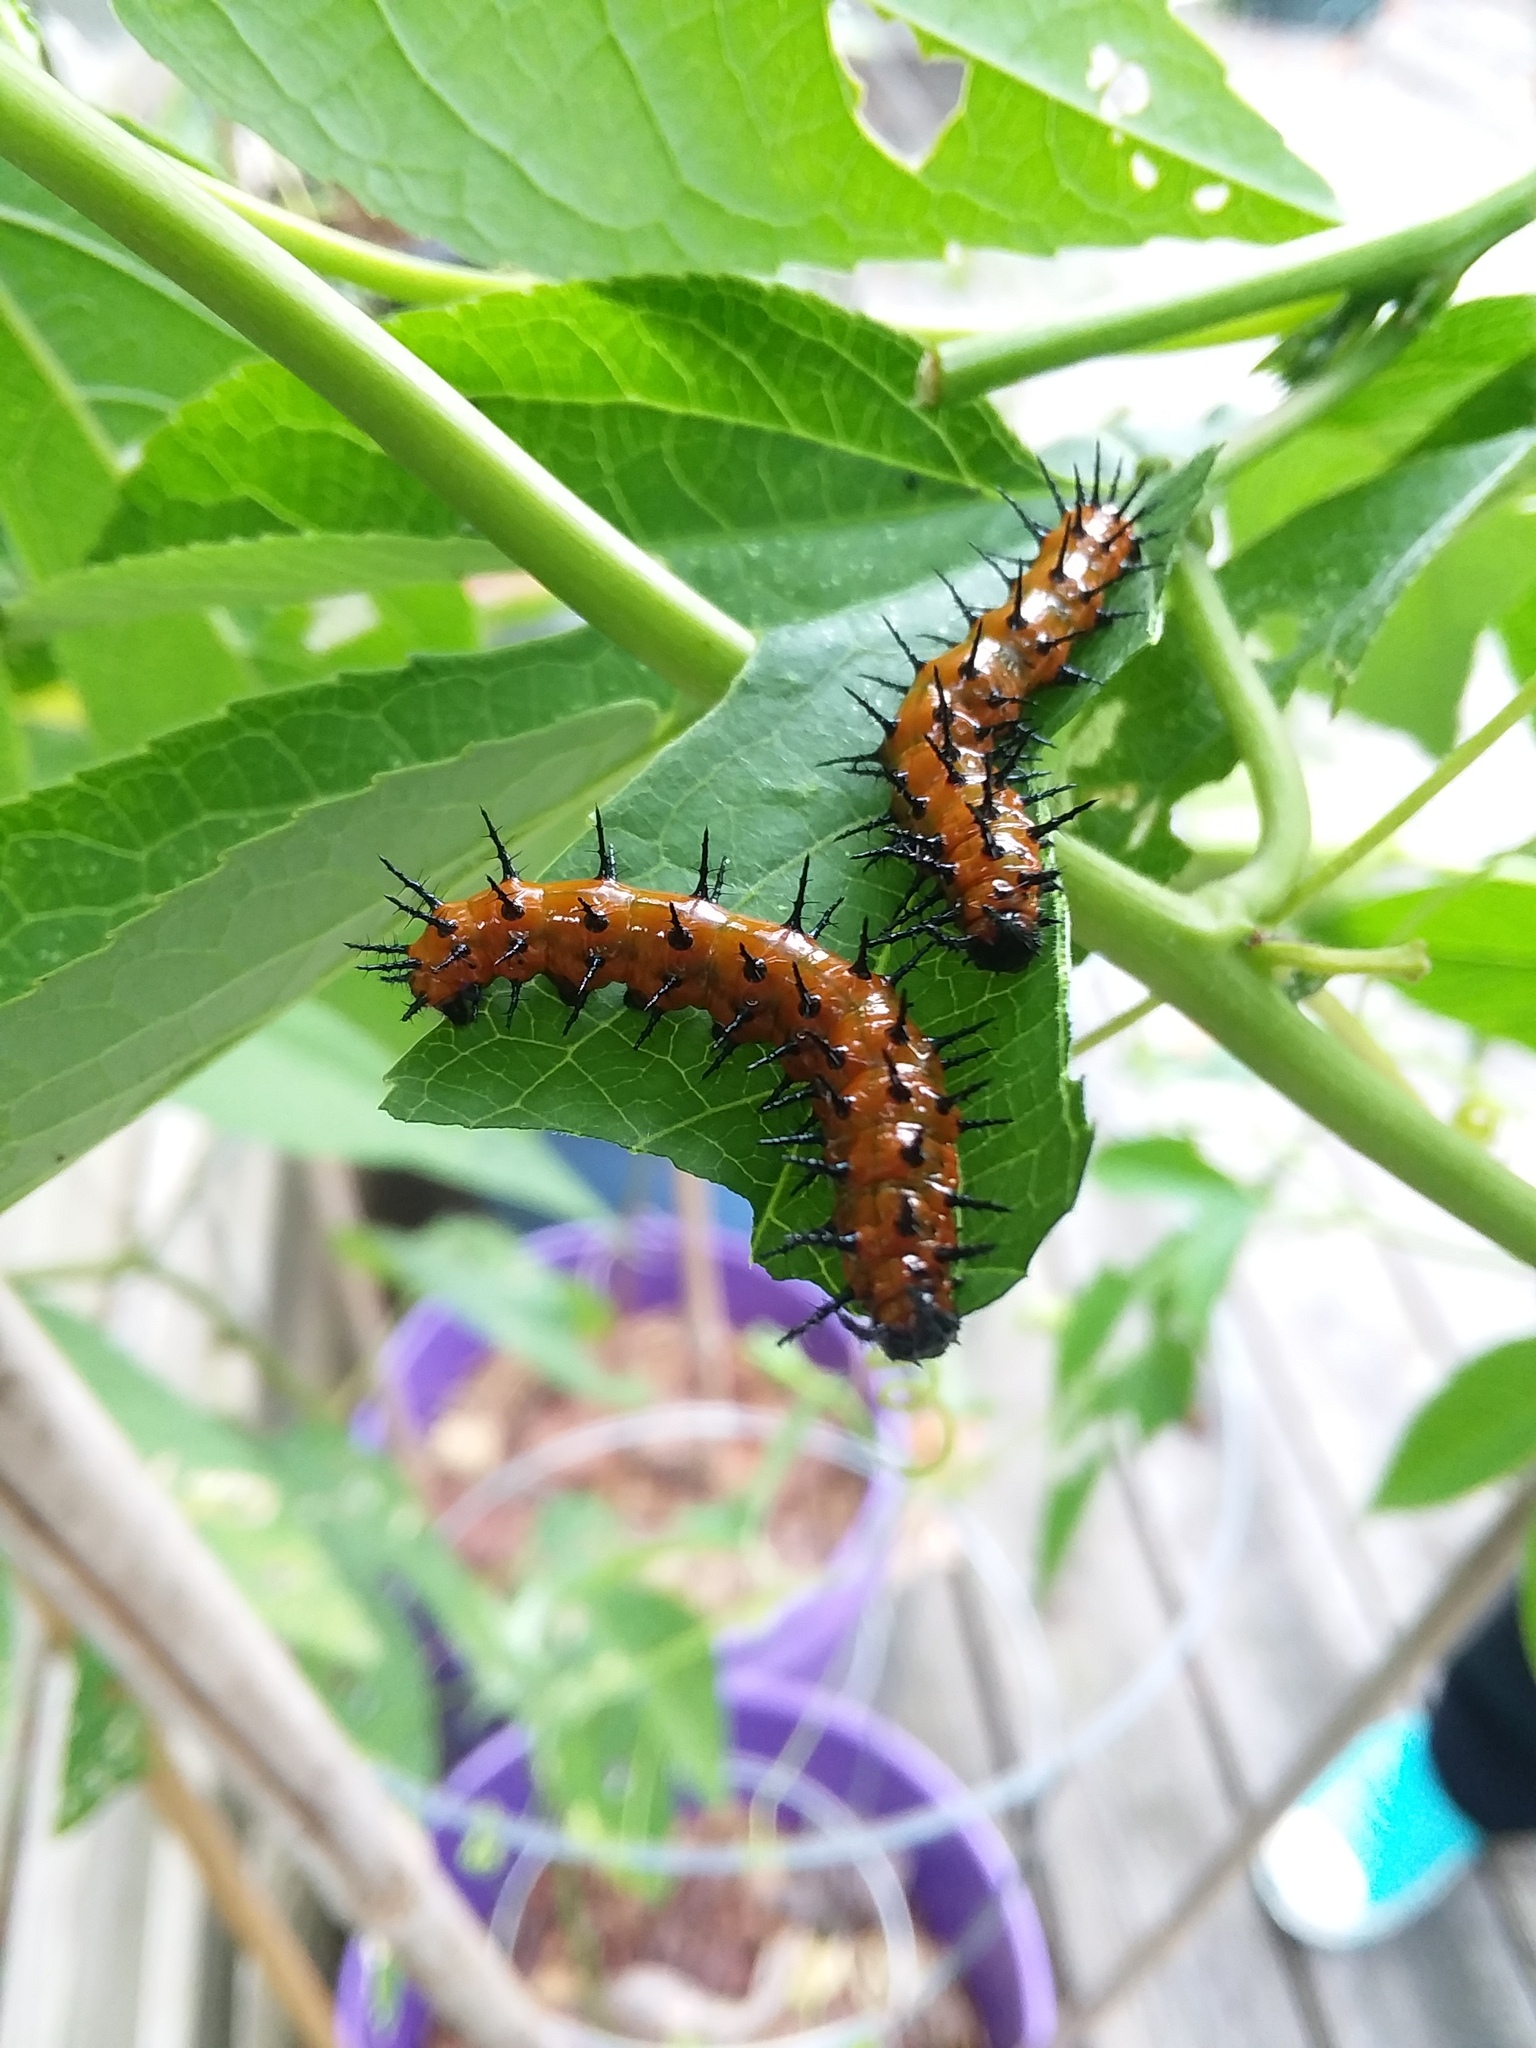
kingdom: Animalia
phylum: Arthropoda
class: Insecta
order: Lepidoptera
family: Nymphalidae
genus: Dione
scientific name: Dione vanillae
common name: Gulf fritillary
